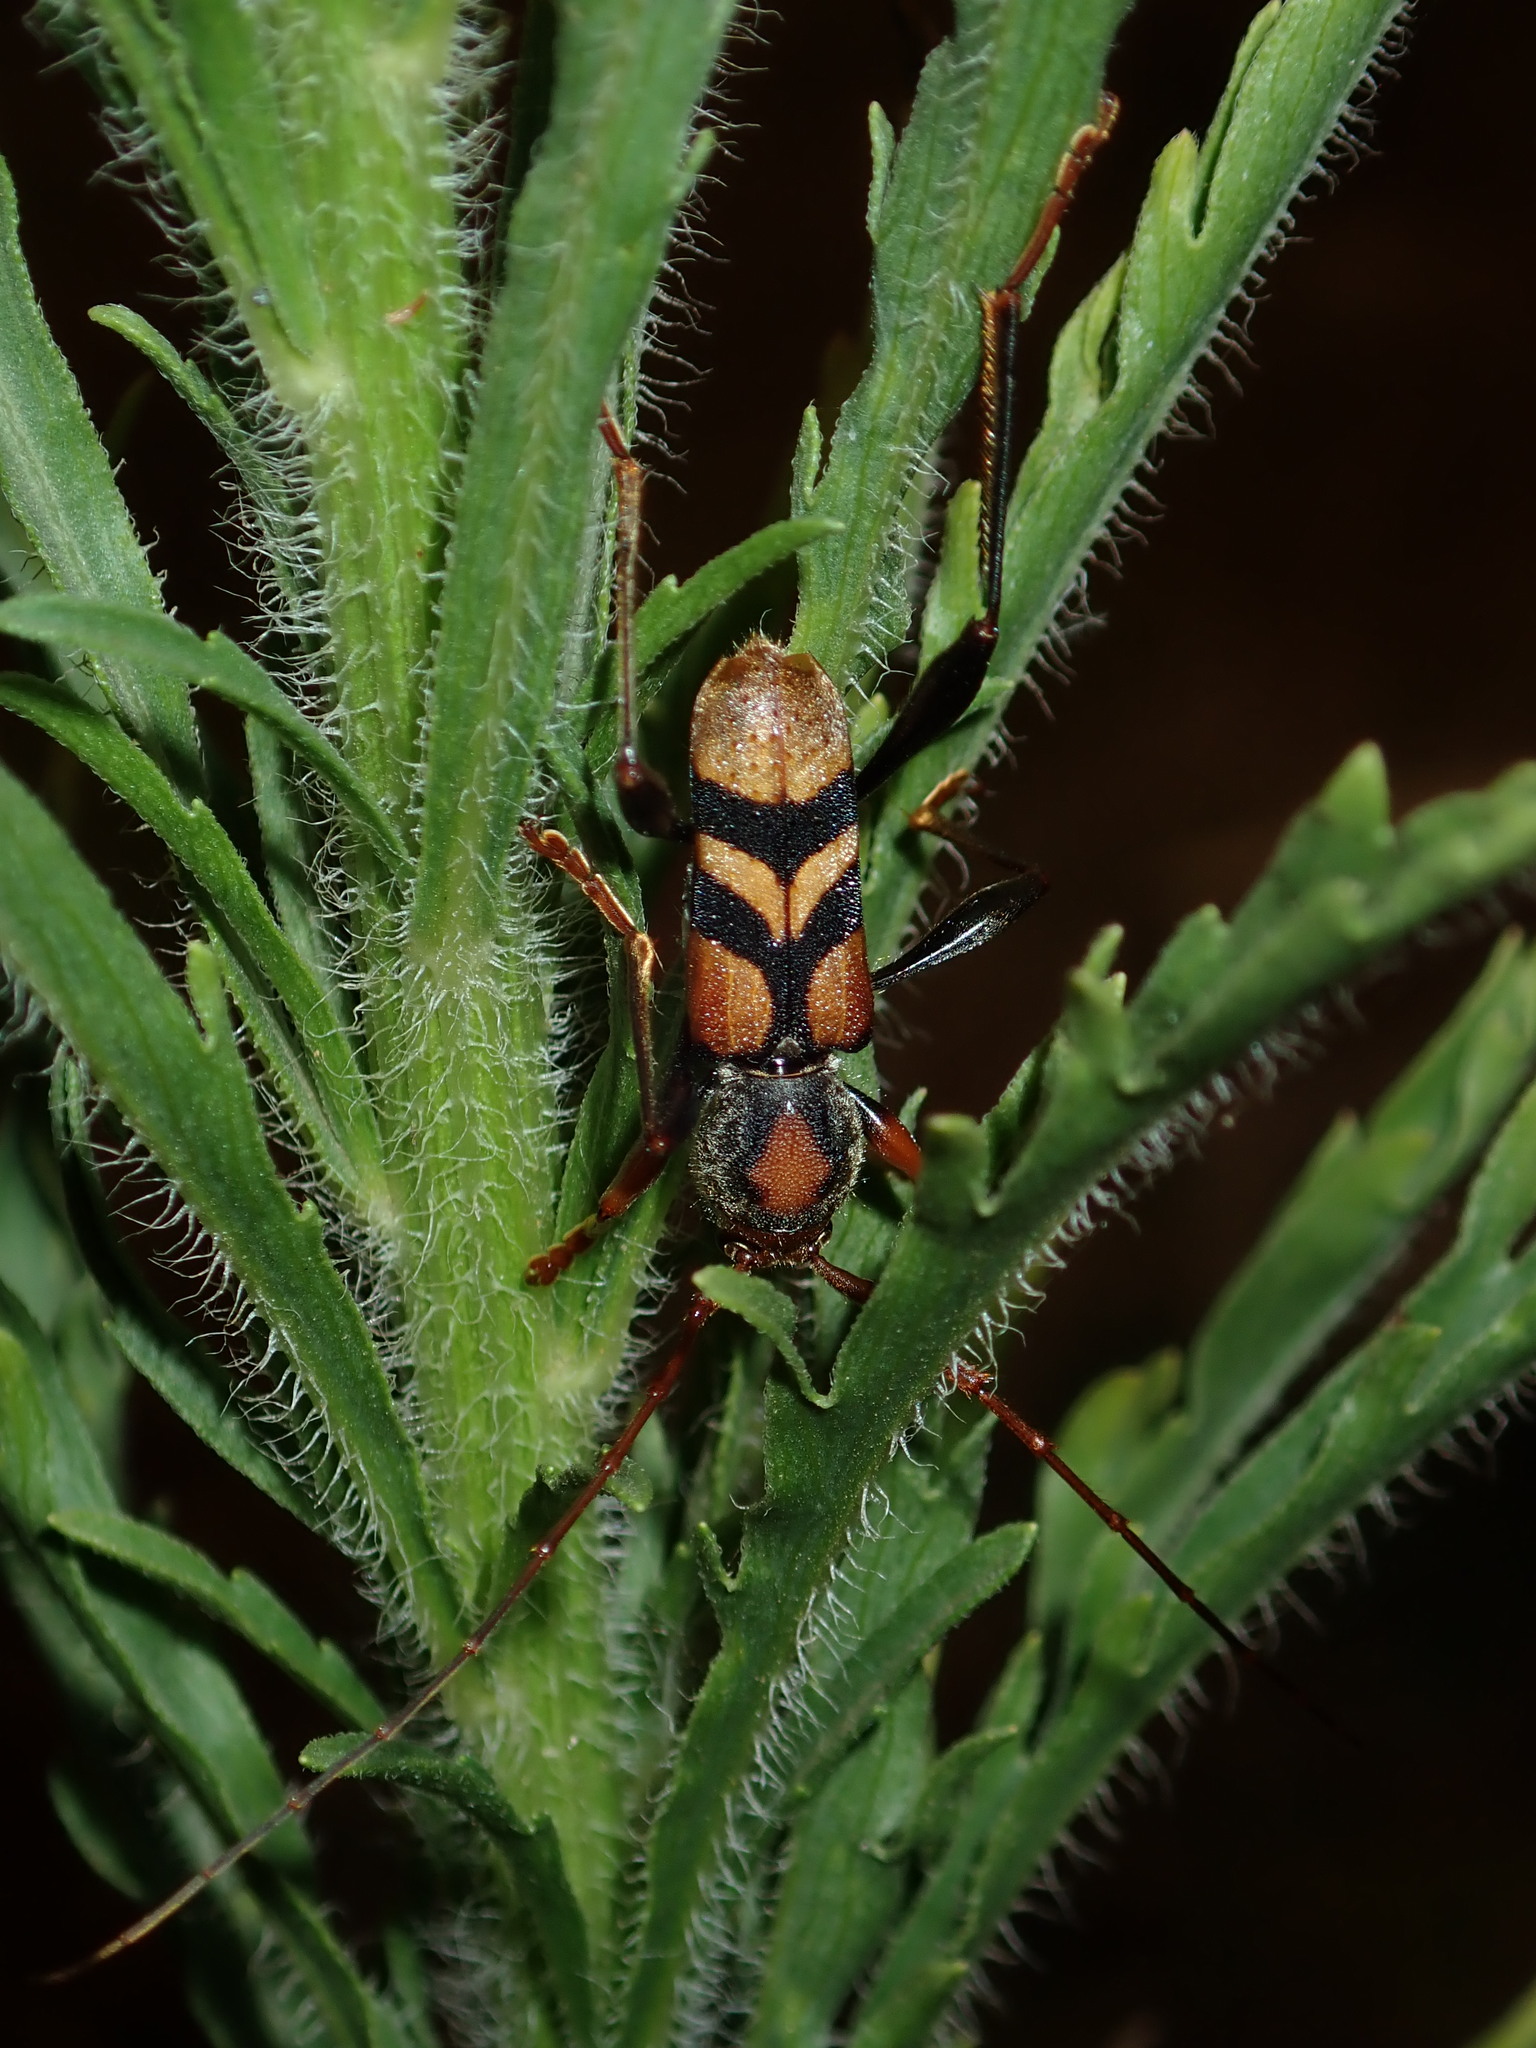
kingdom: Animalia
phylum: Arthropoda
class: Insecta
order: Coleoptera
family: Cerambycidae
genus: Aridaeus
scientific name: Aridaeus thoracicus
